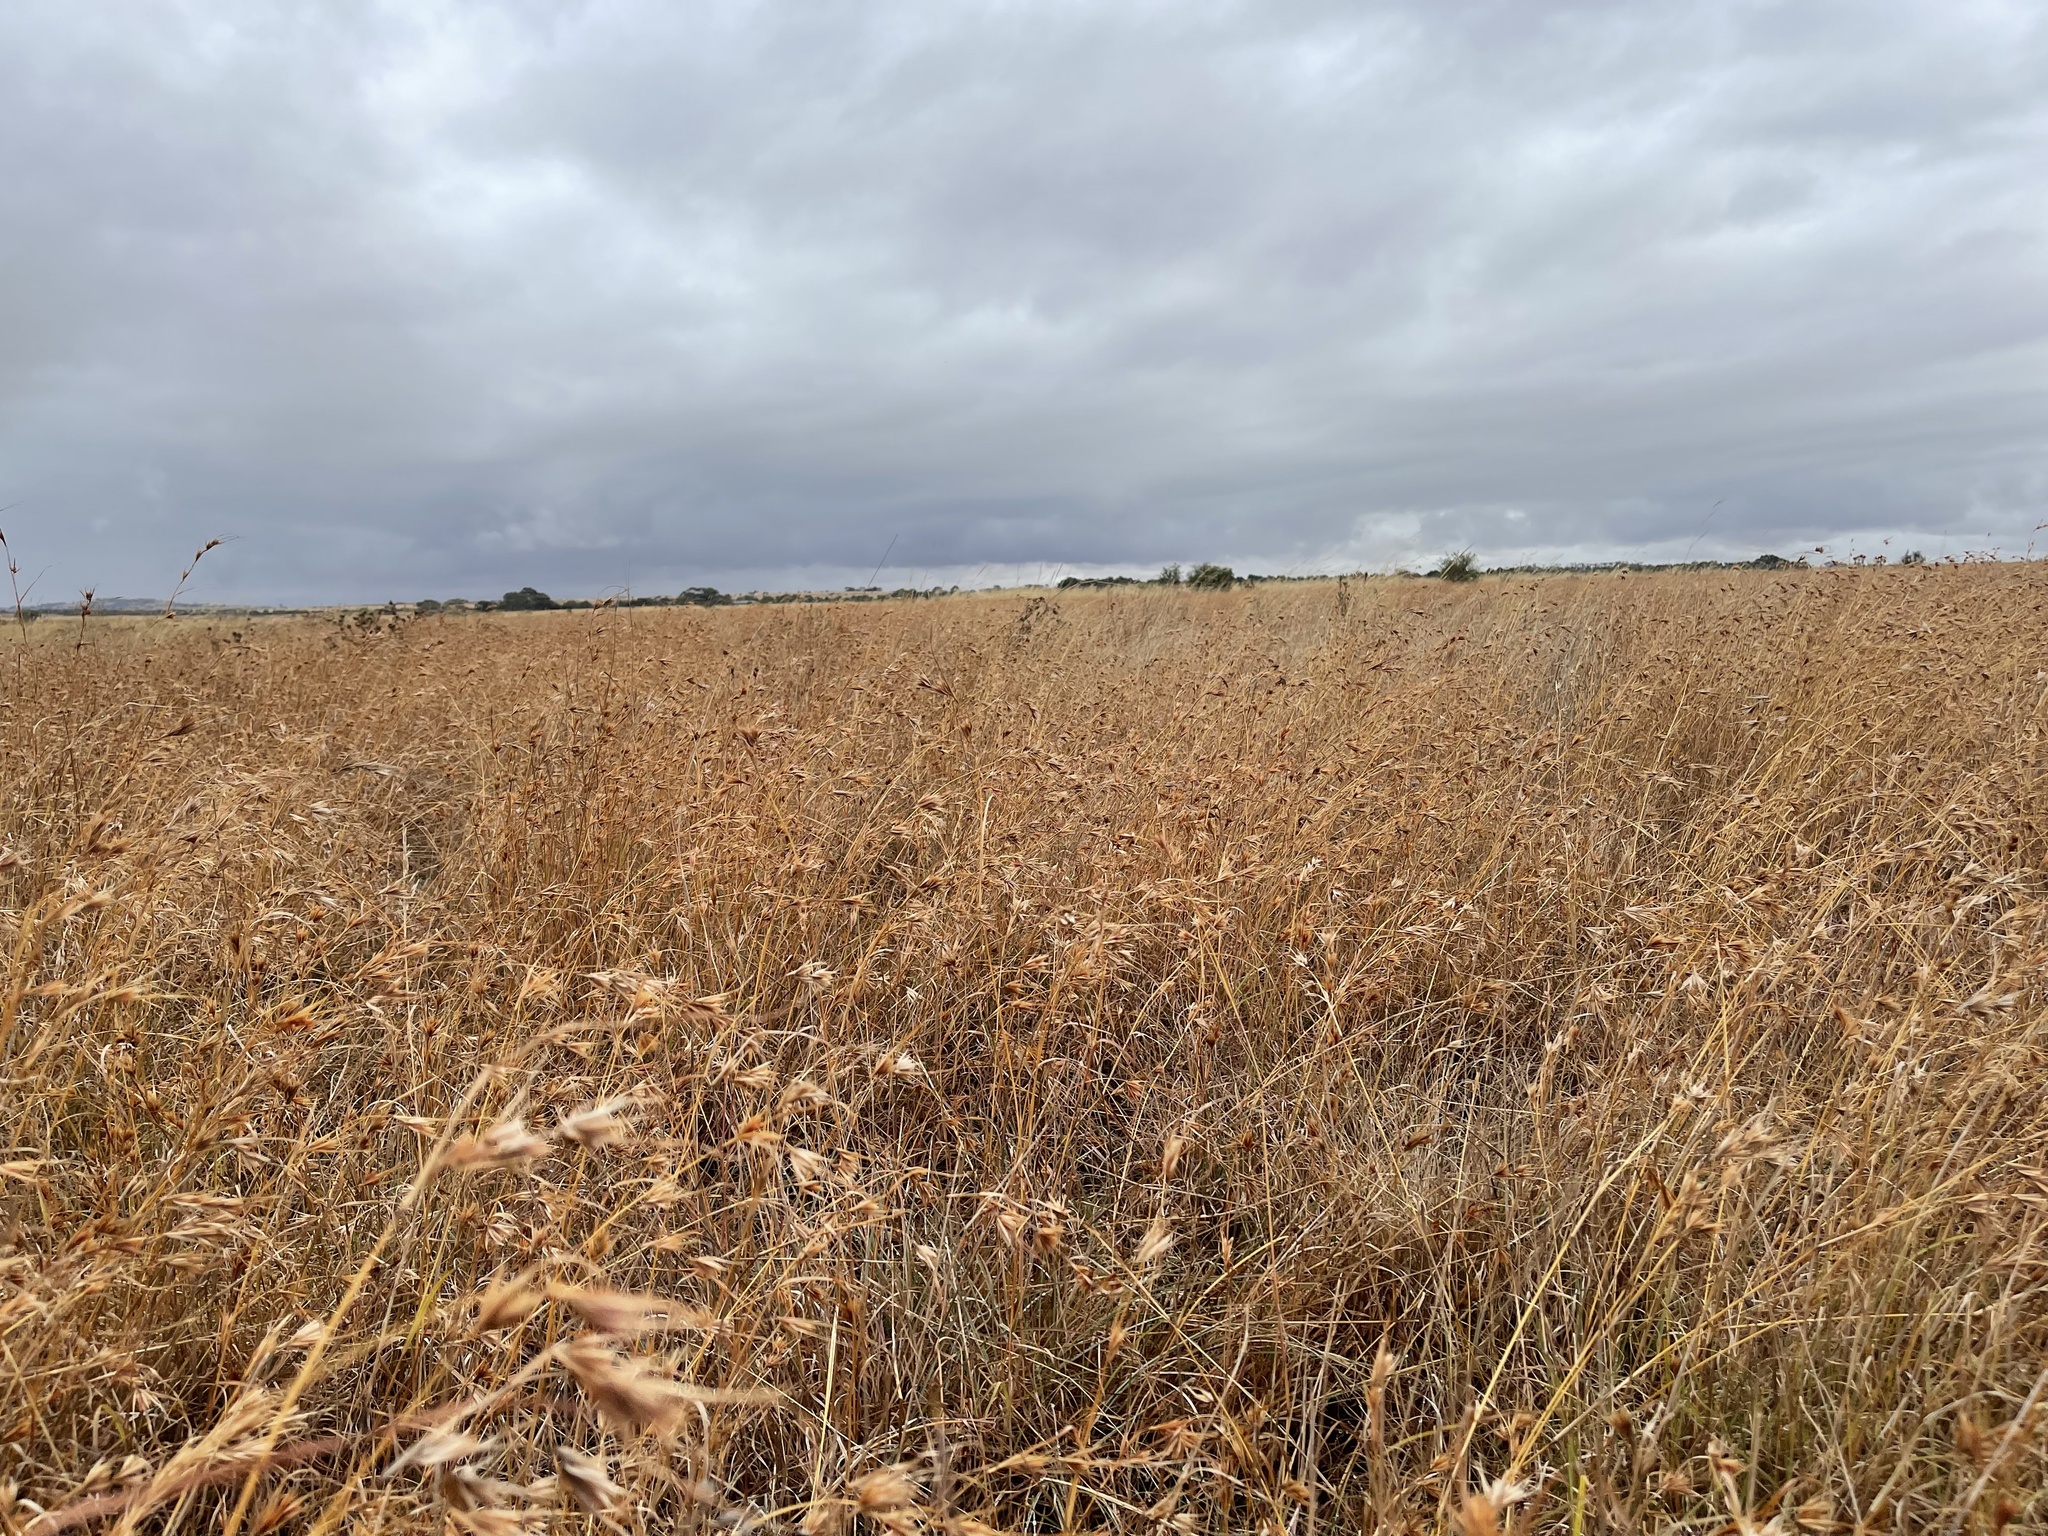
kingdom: Plantae
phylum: Tracheophyta
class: Liliopsida
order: Poales
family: Poaceae
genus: Themeda
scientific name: Themeda triandra
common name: Kangaroo grass
